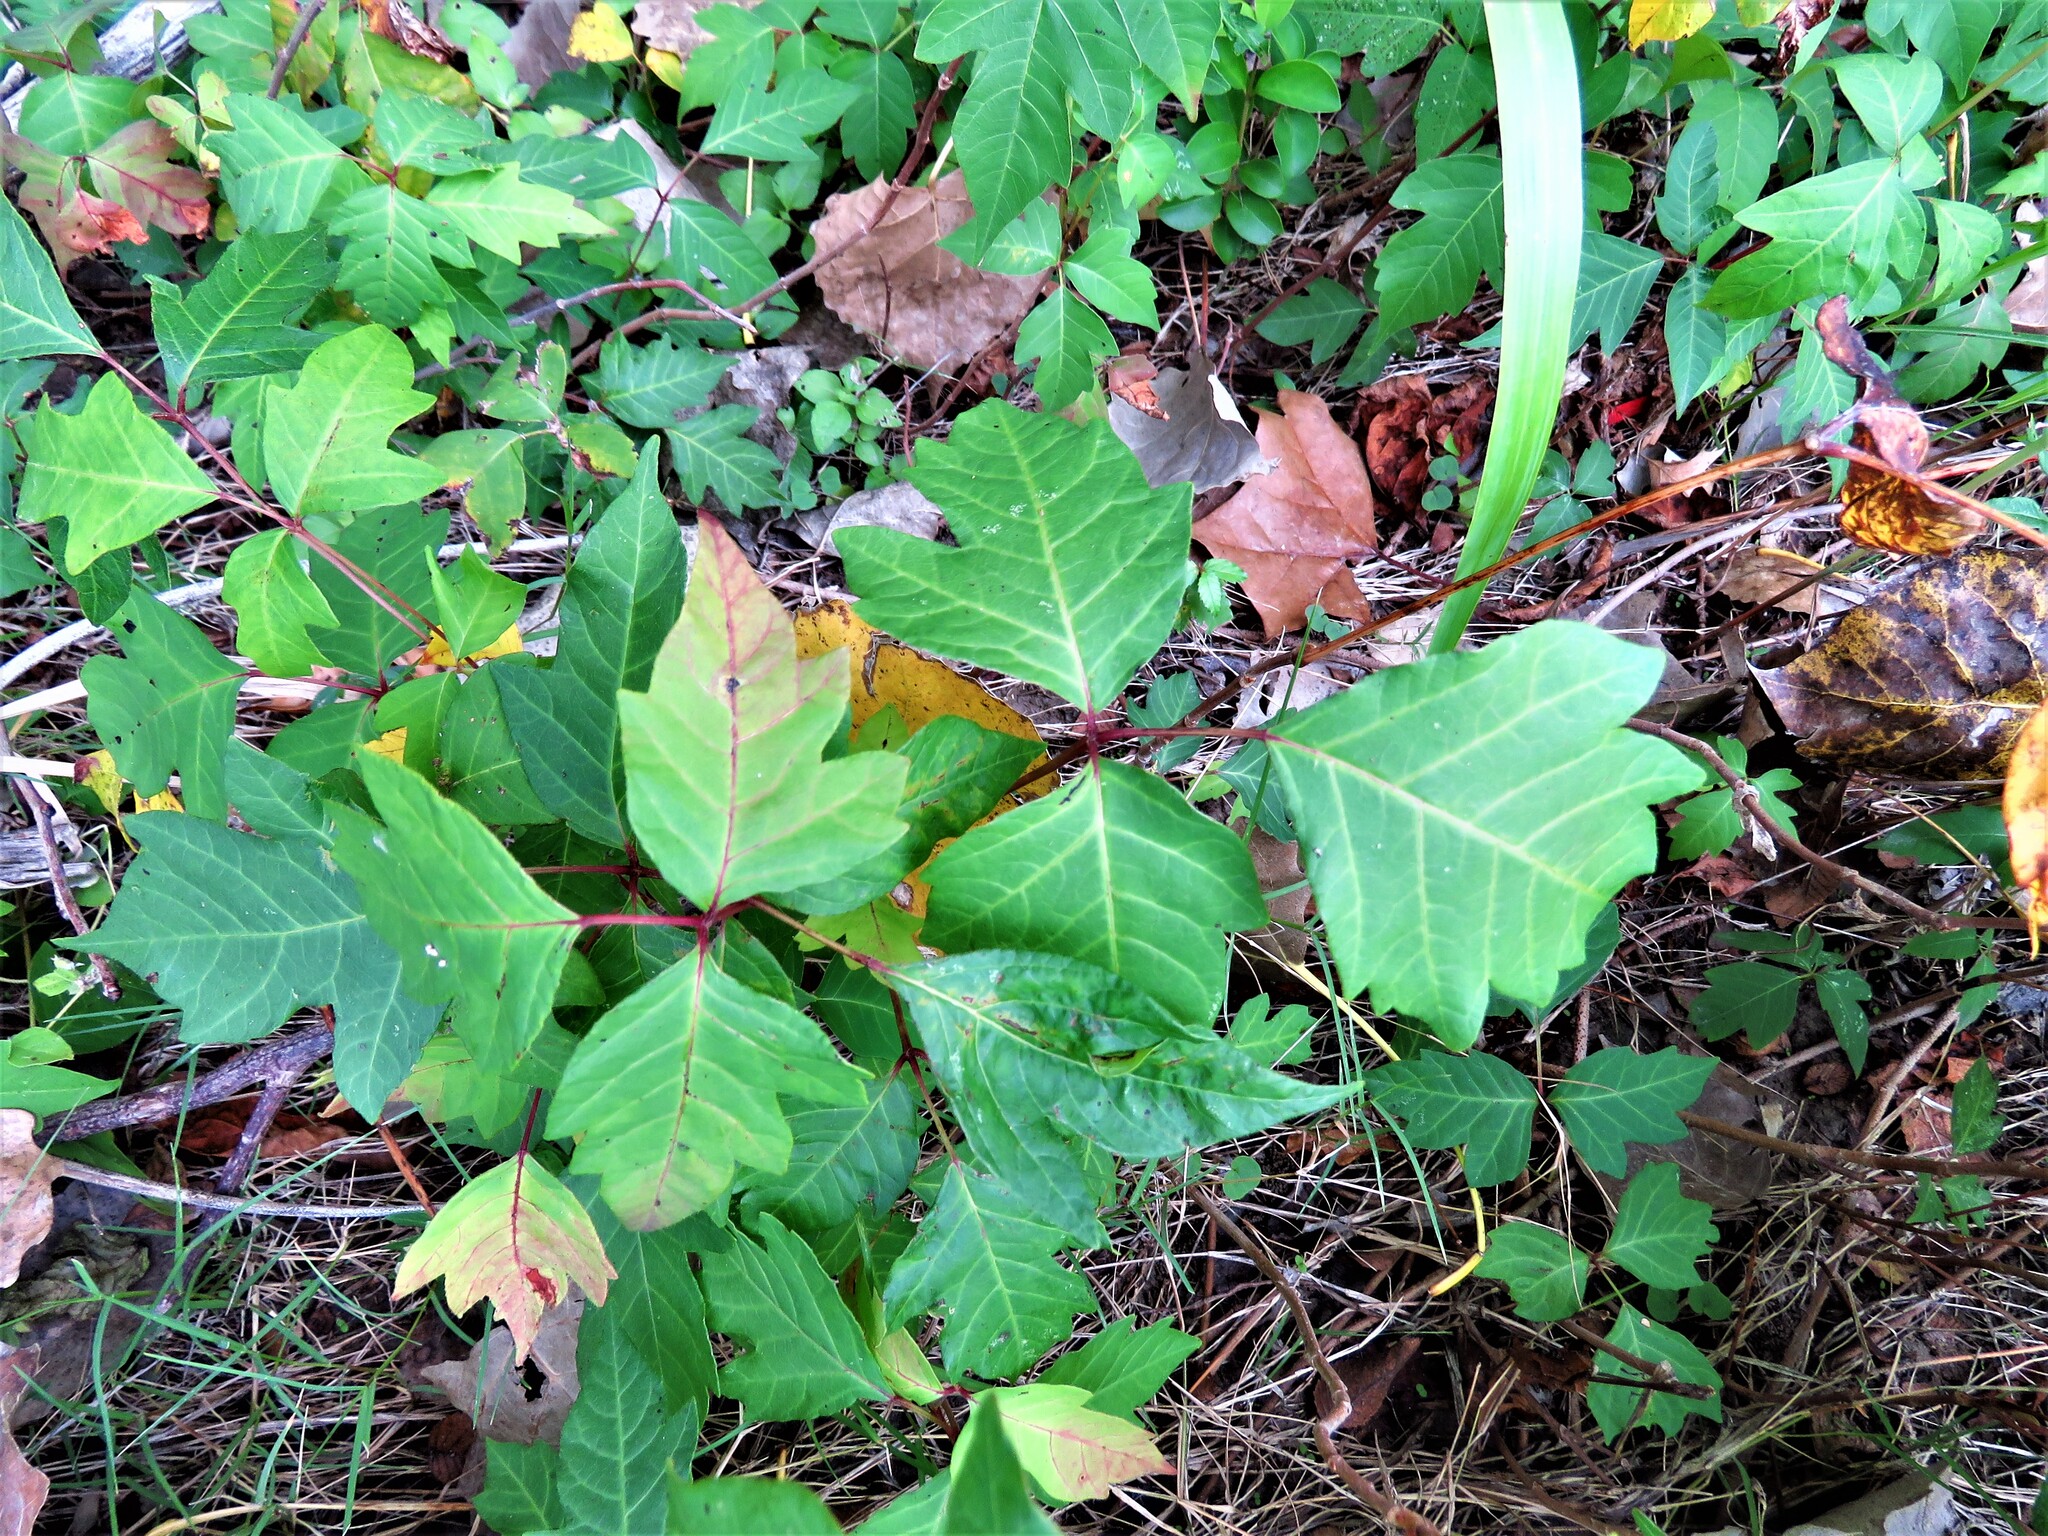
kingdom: Plantae
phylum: Tracheophyta
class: Magnoliopsida
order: Sapindales
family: Anacardiaceae
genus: Toxicodendron
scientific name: Toxicodendron radicans
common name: Poison ivy
